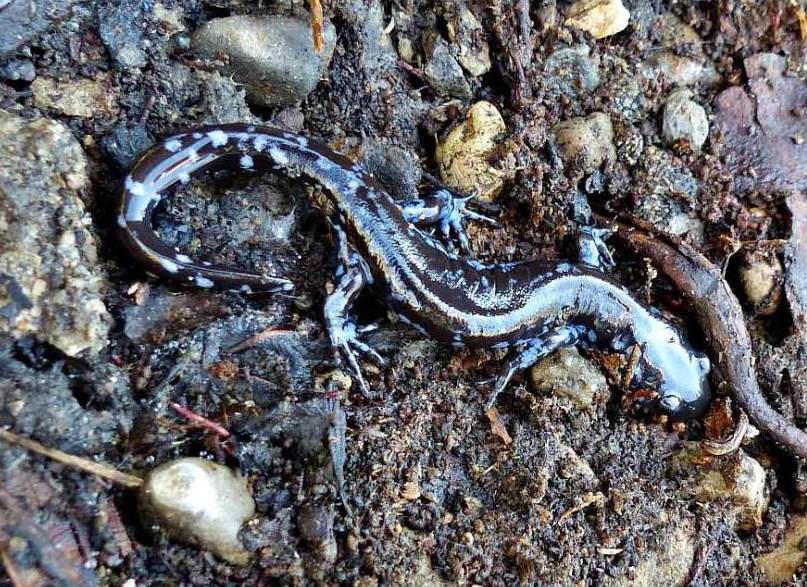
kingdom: Animalia
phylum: Chordata
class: Amphibia
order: Caudata
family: Ambystomatidae
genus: Ambystoma
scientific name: Ambystoma laterale
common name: Blue-spotted salamander
